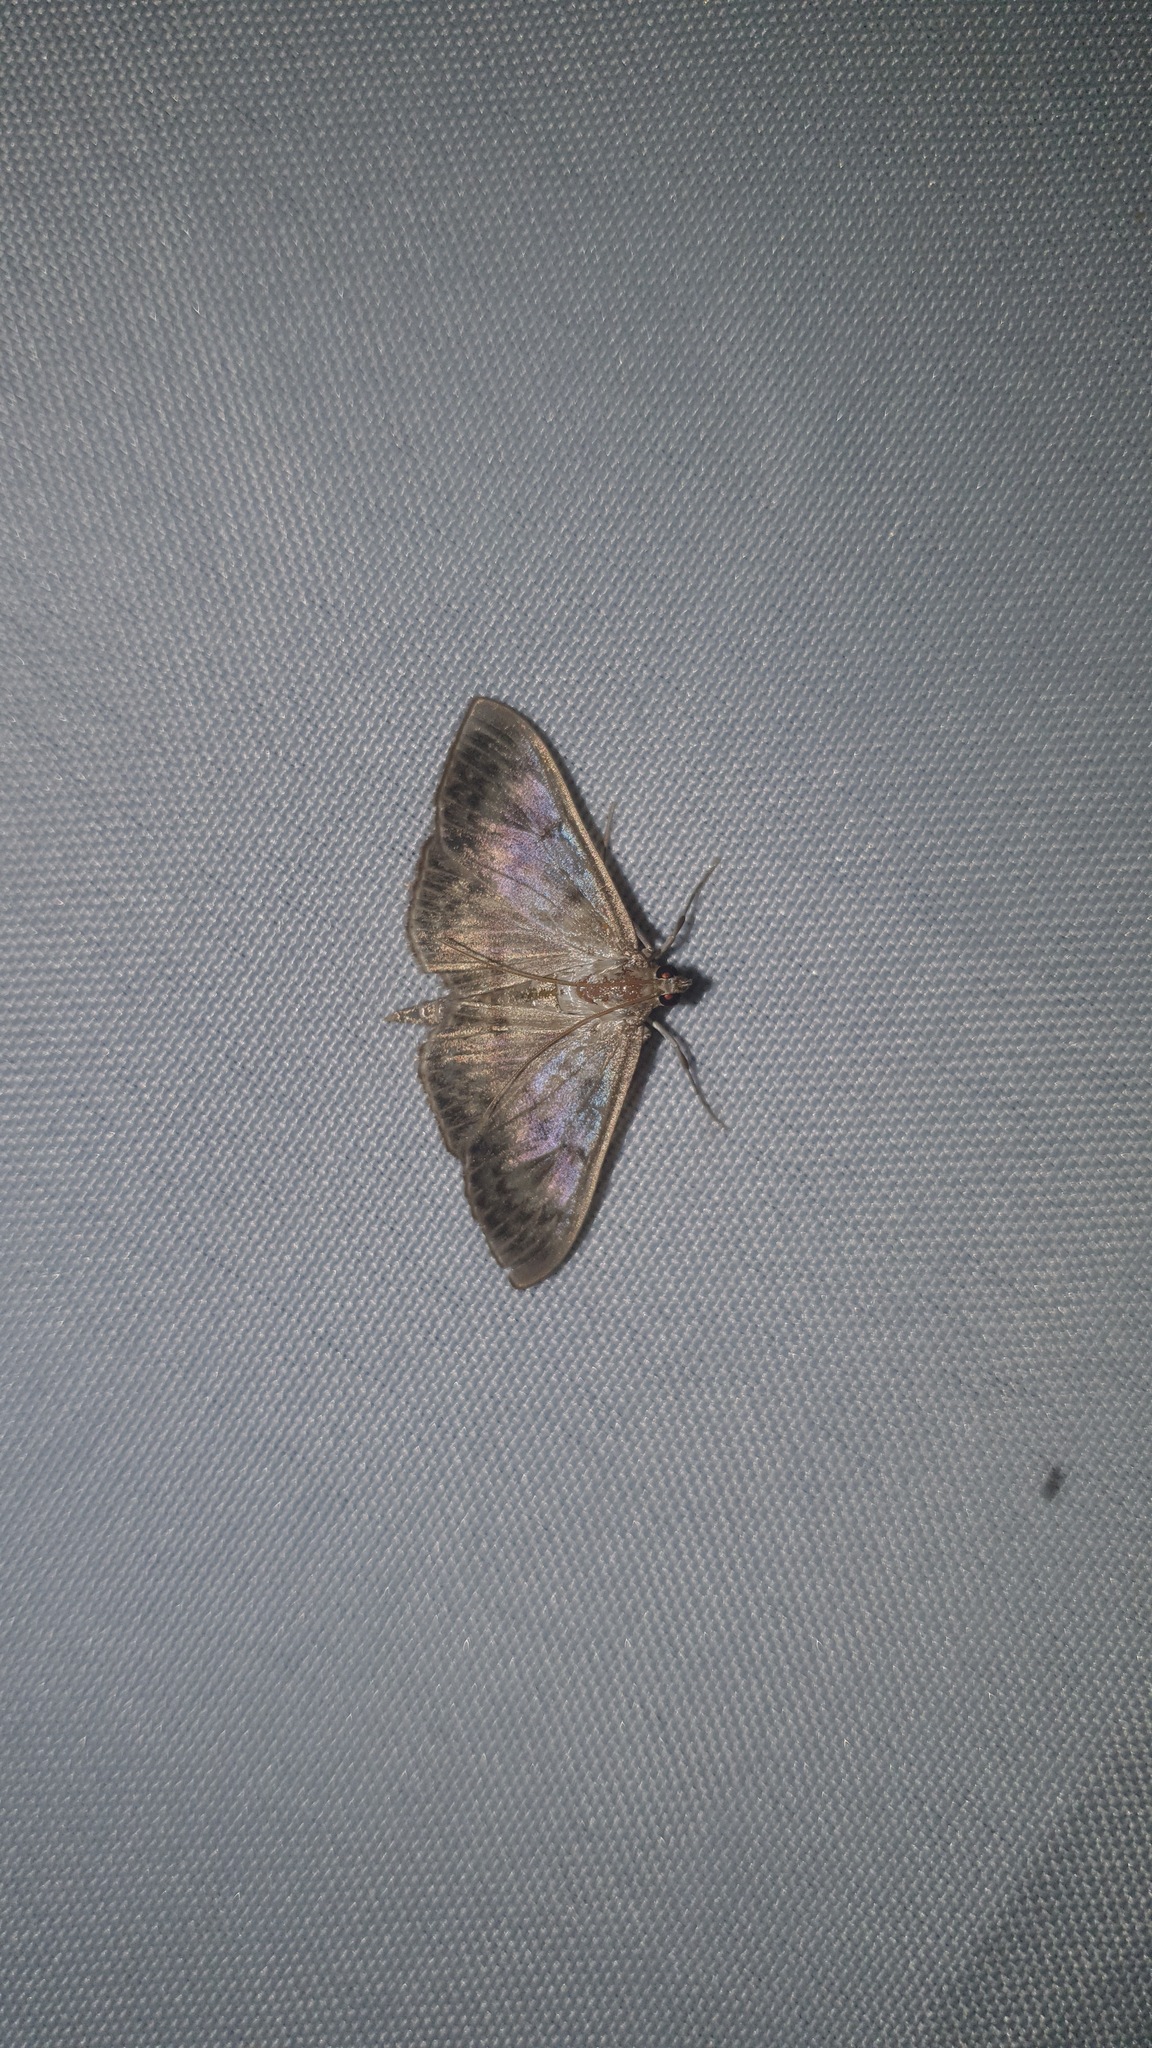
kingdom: Animalia
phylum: Arthropoda
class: Insecta
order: Lepidoptera
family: Crambidae
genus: Patania
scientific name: Patania ruralis
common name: Mother of pearl
